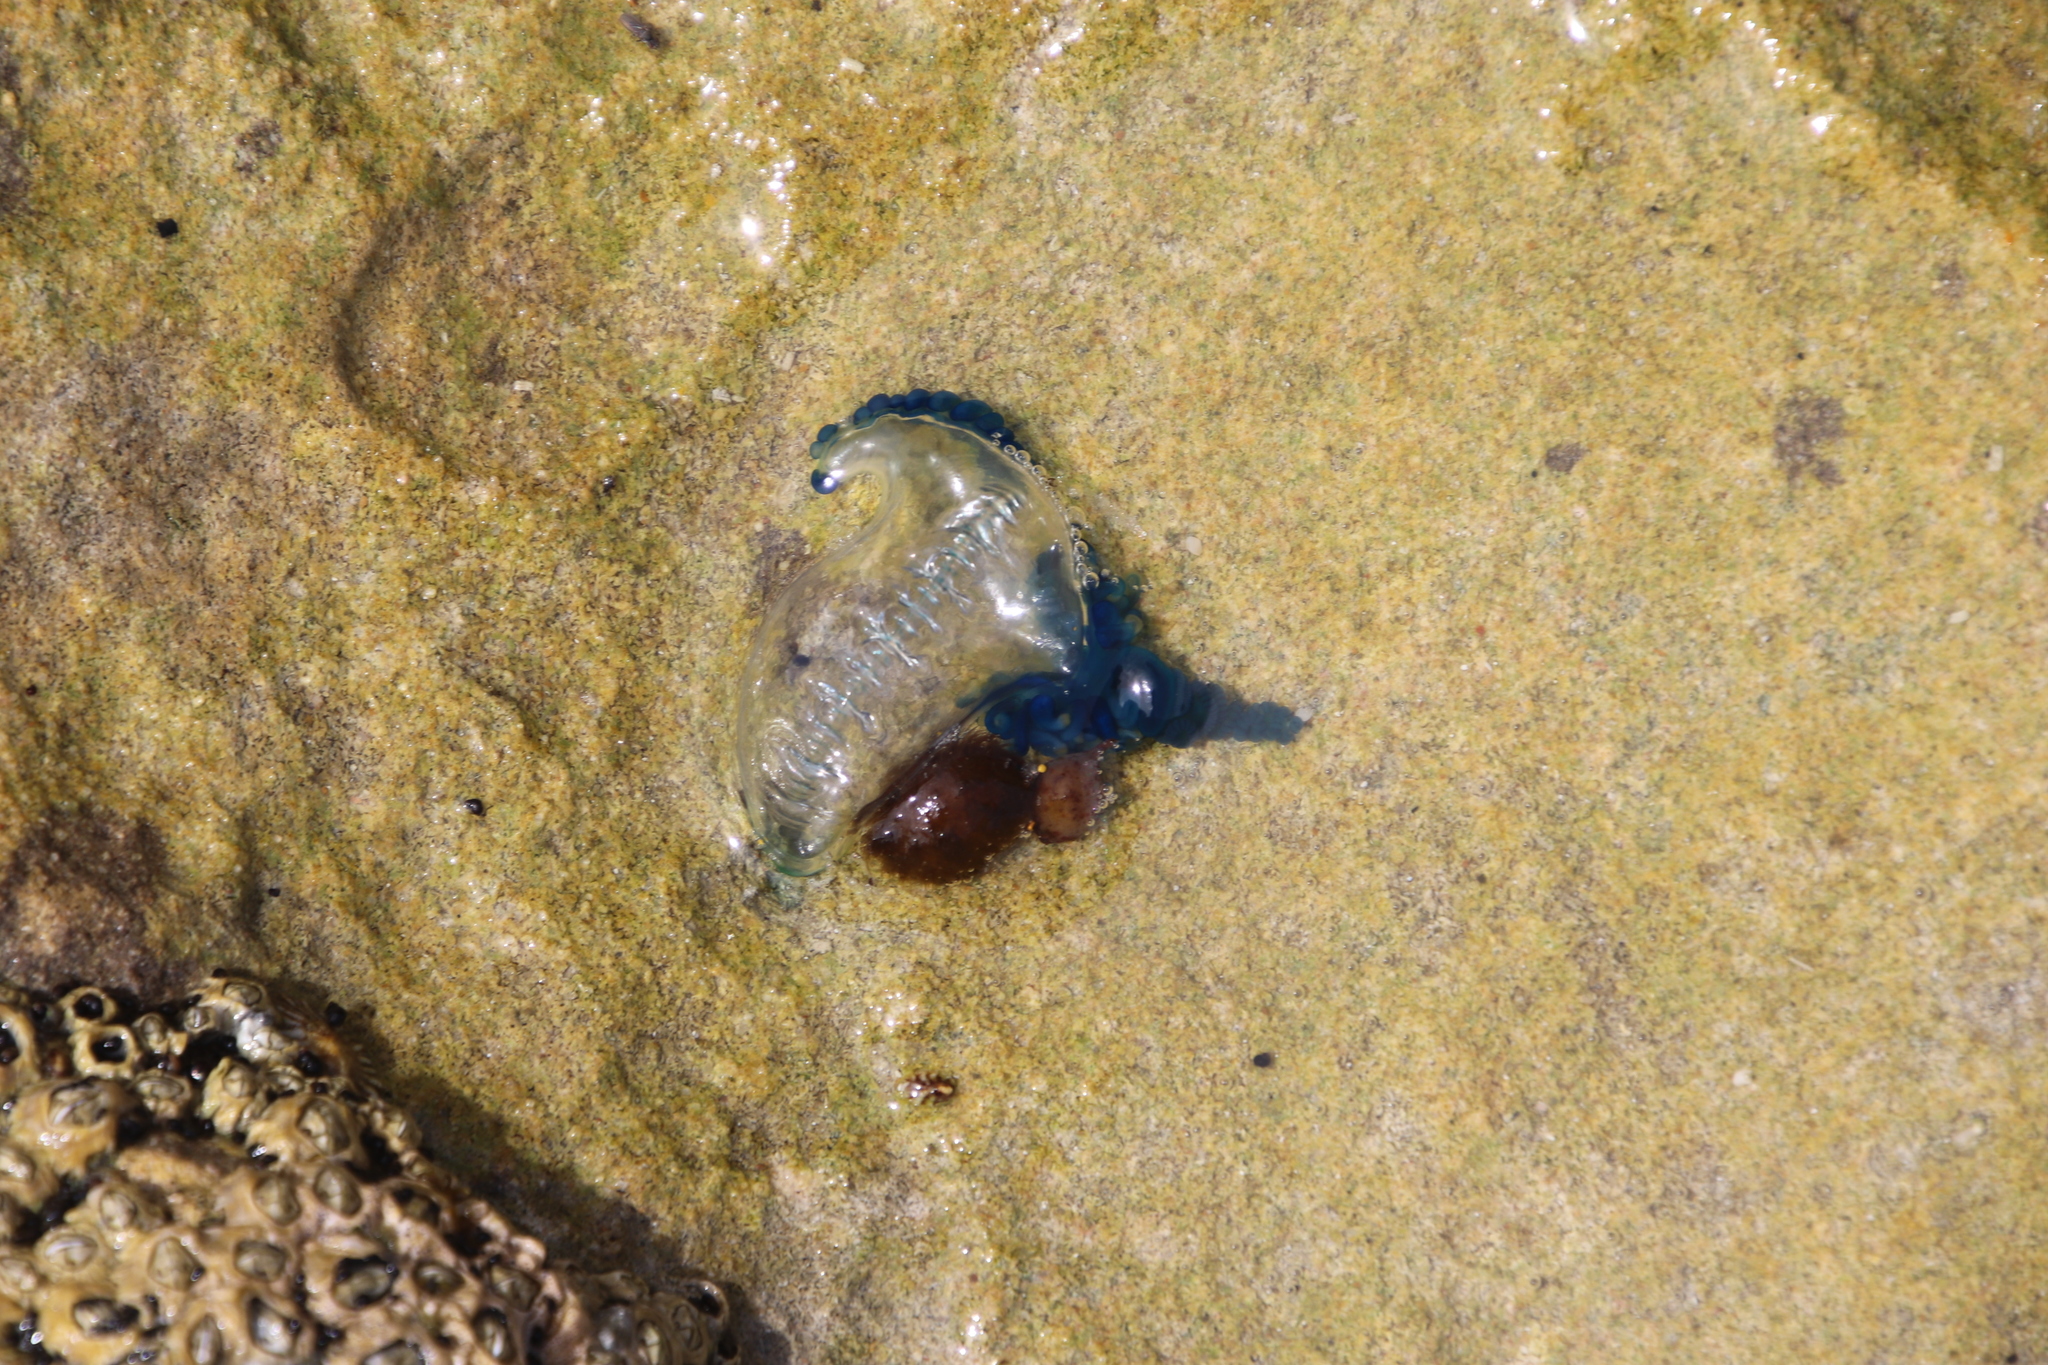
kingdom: Animalia
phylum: Cnidaria
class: Hydrozoa
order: Siphonophorae
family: Physaliidae
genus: Physalia
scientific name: Physalia physalis
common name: Portuguese man-of-war
